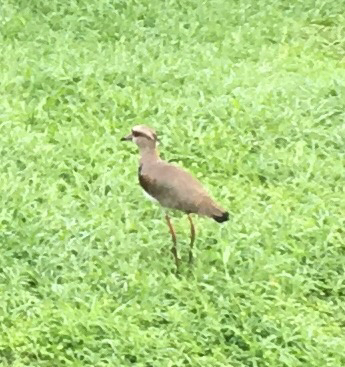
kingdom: Animalia
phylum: Chordata
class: Aves
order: Charadriiformes
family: Charadriidae
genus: Vanellus
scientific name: Vanellus chilensis
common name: Southern lapwing
